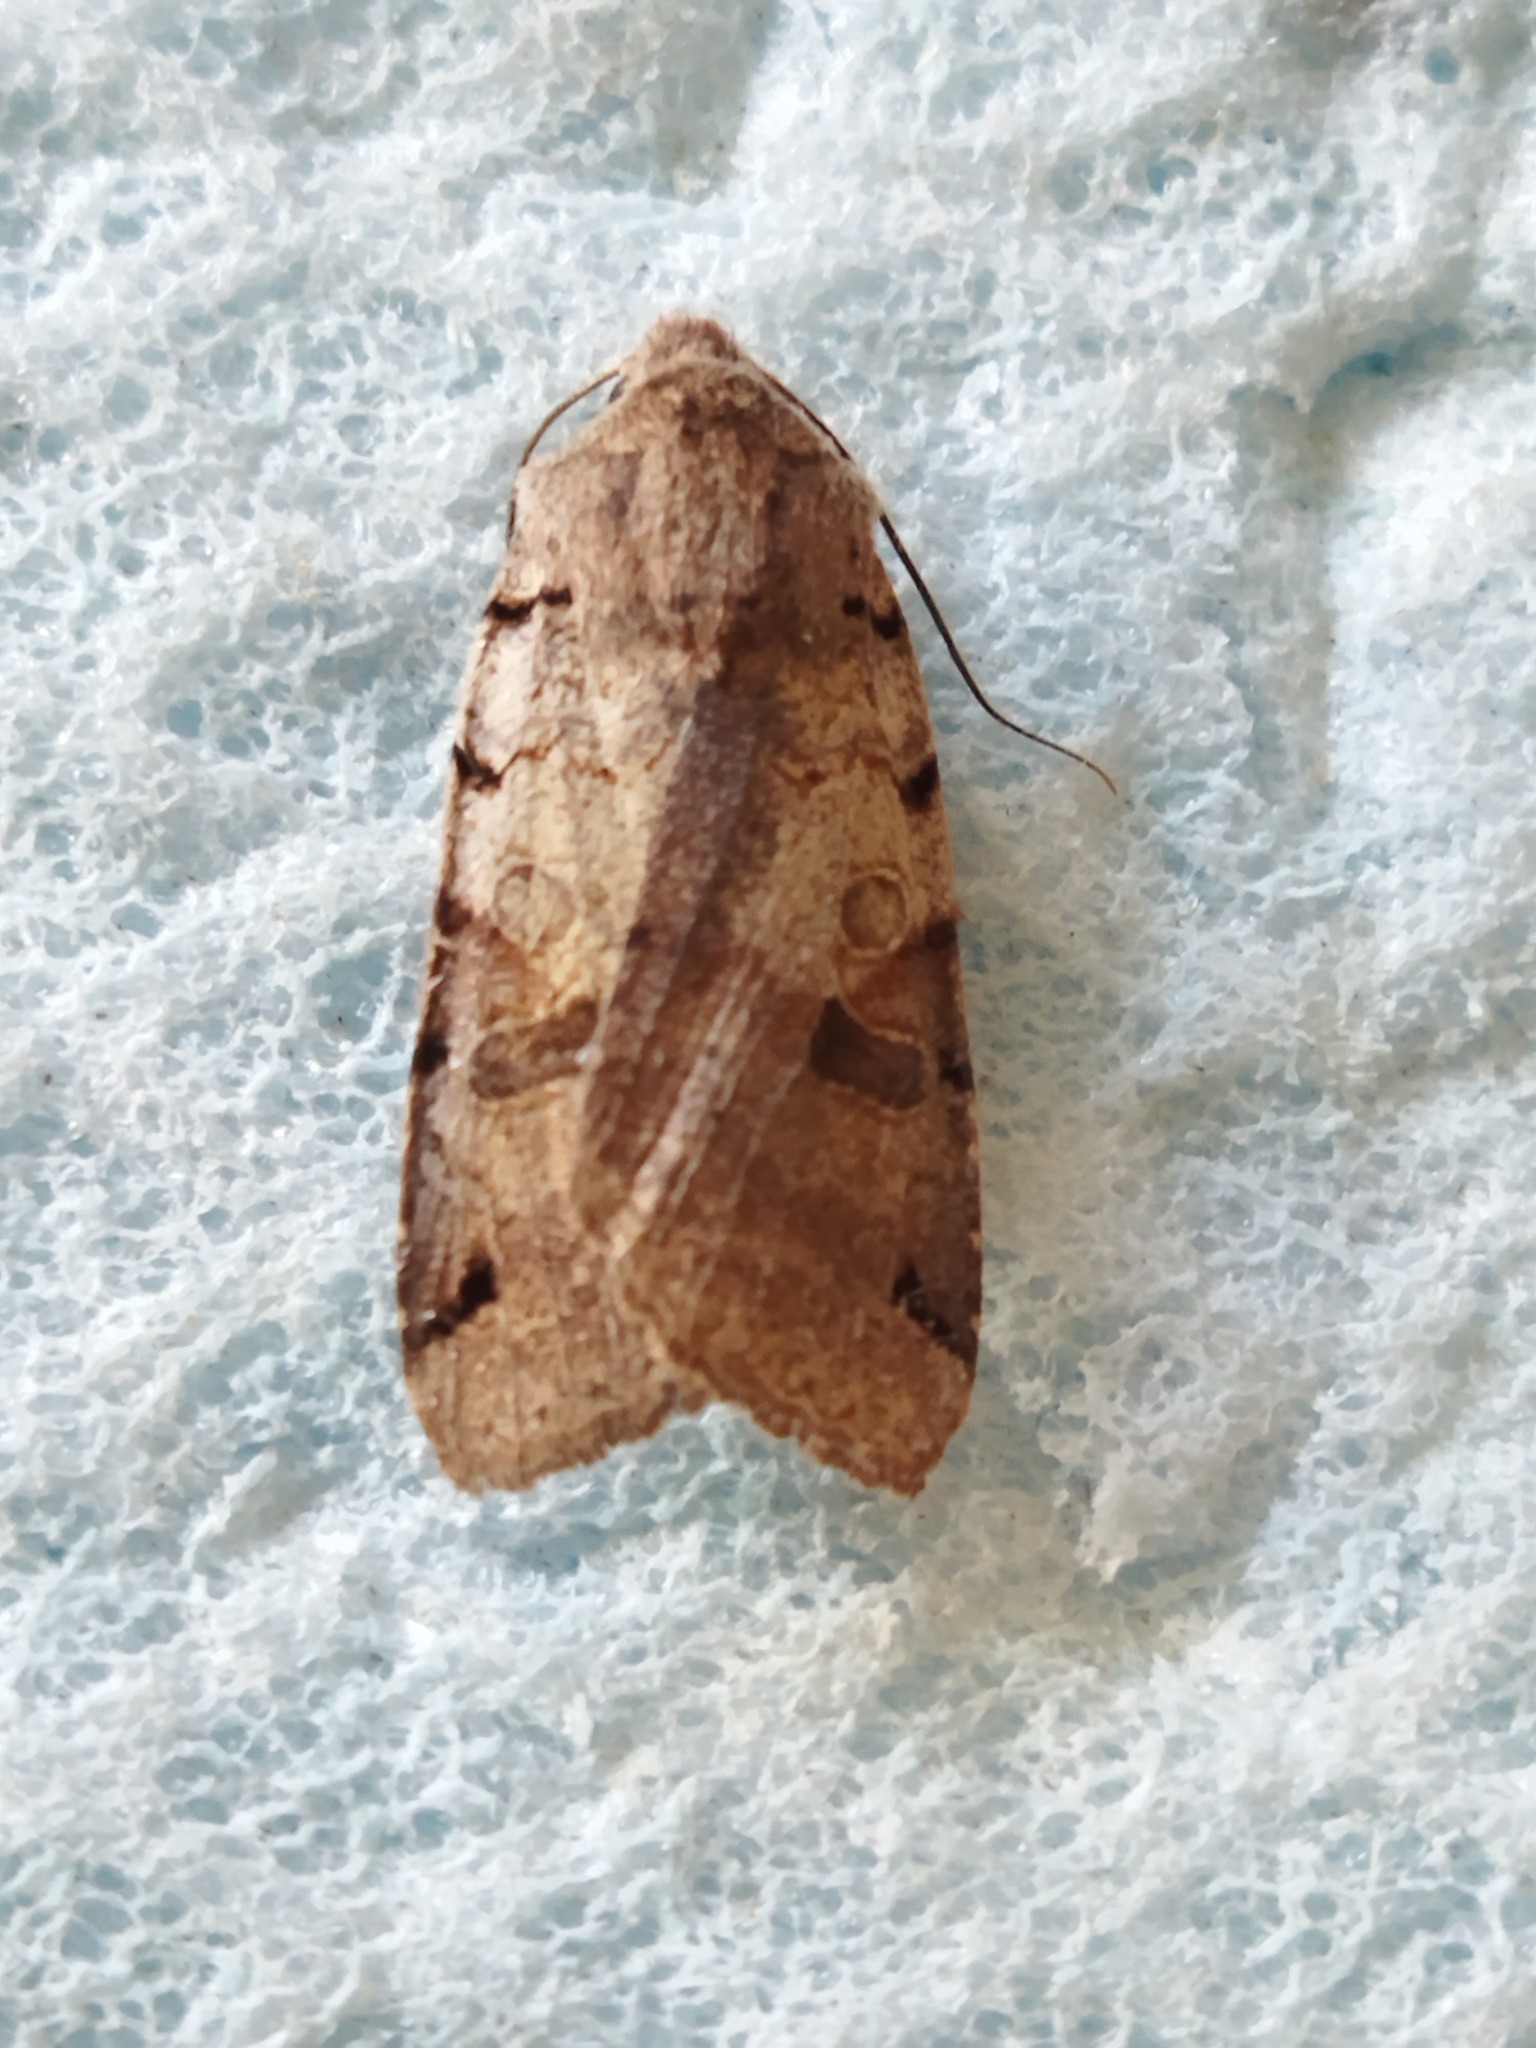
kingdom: Animalia
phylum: Arthropoda
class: Insecta
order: Lepidoptera
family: Noctuidae
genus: Agrochola
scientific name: Agrochola litura
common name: Brown-spot pinion
